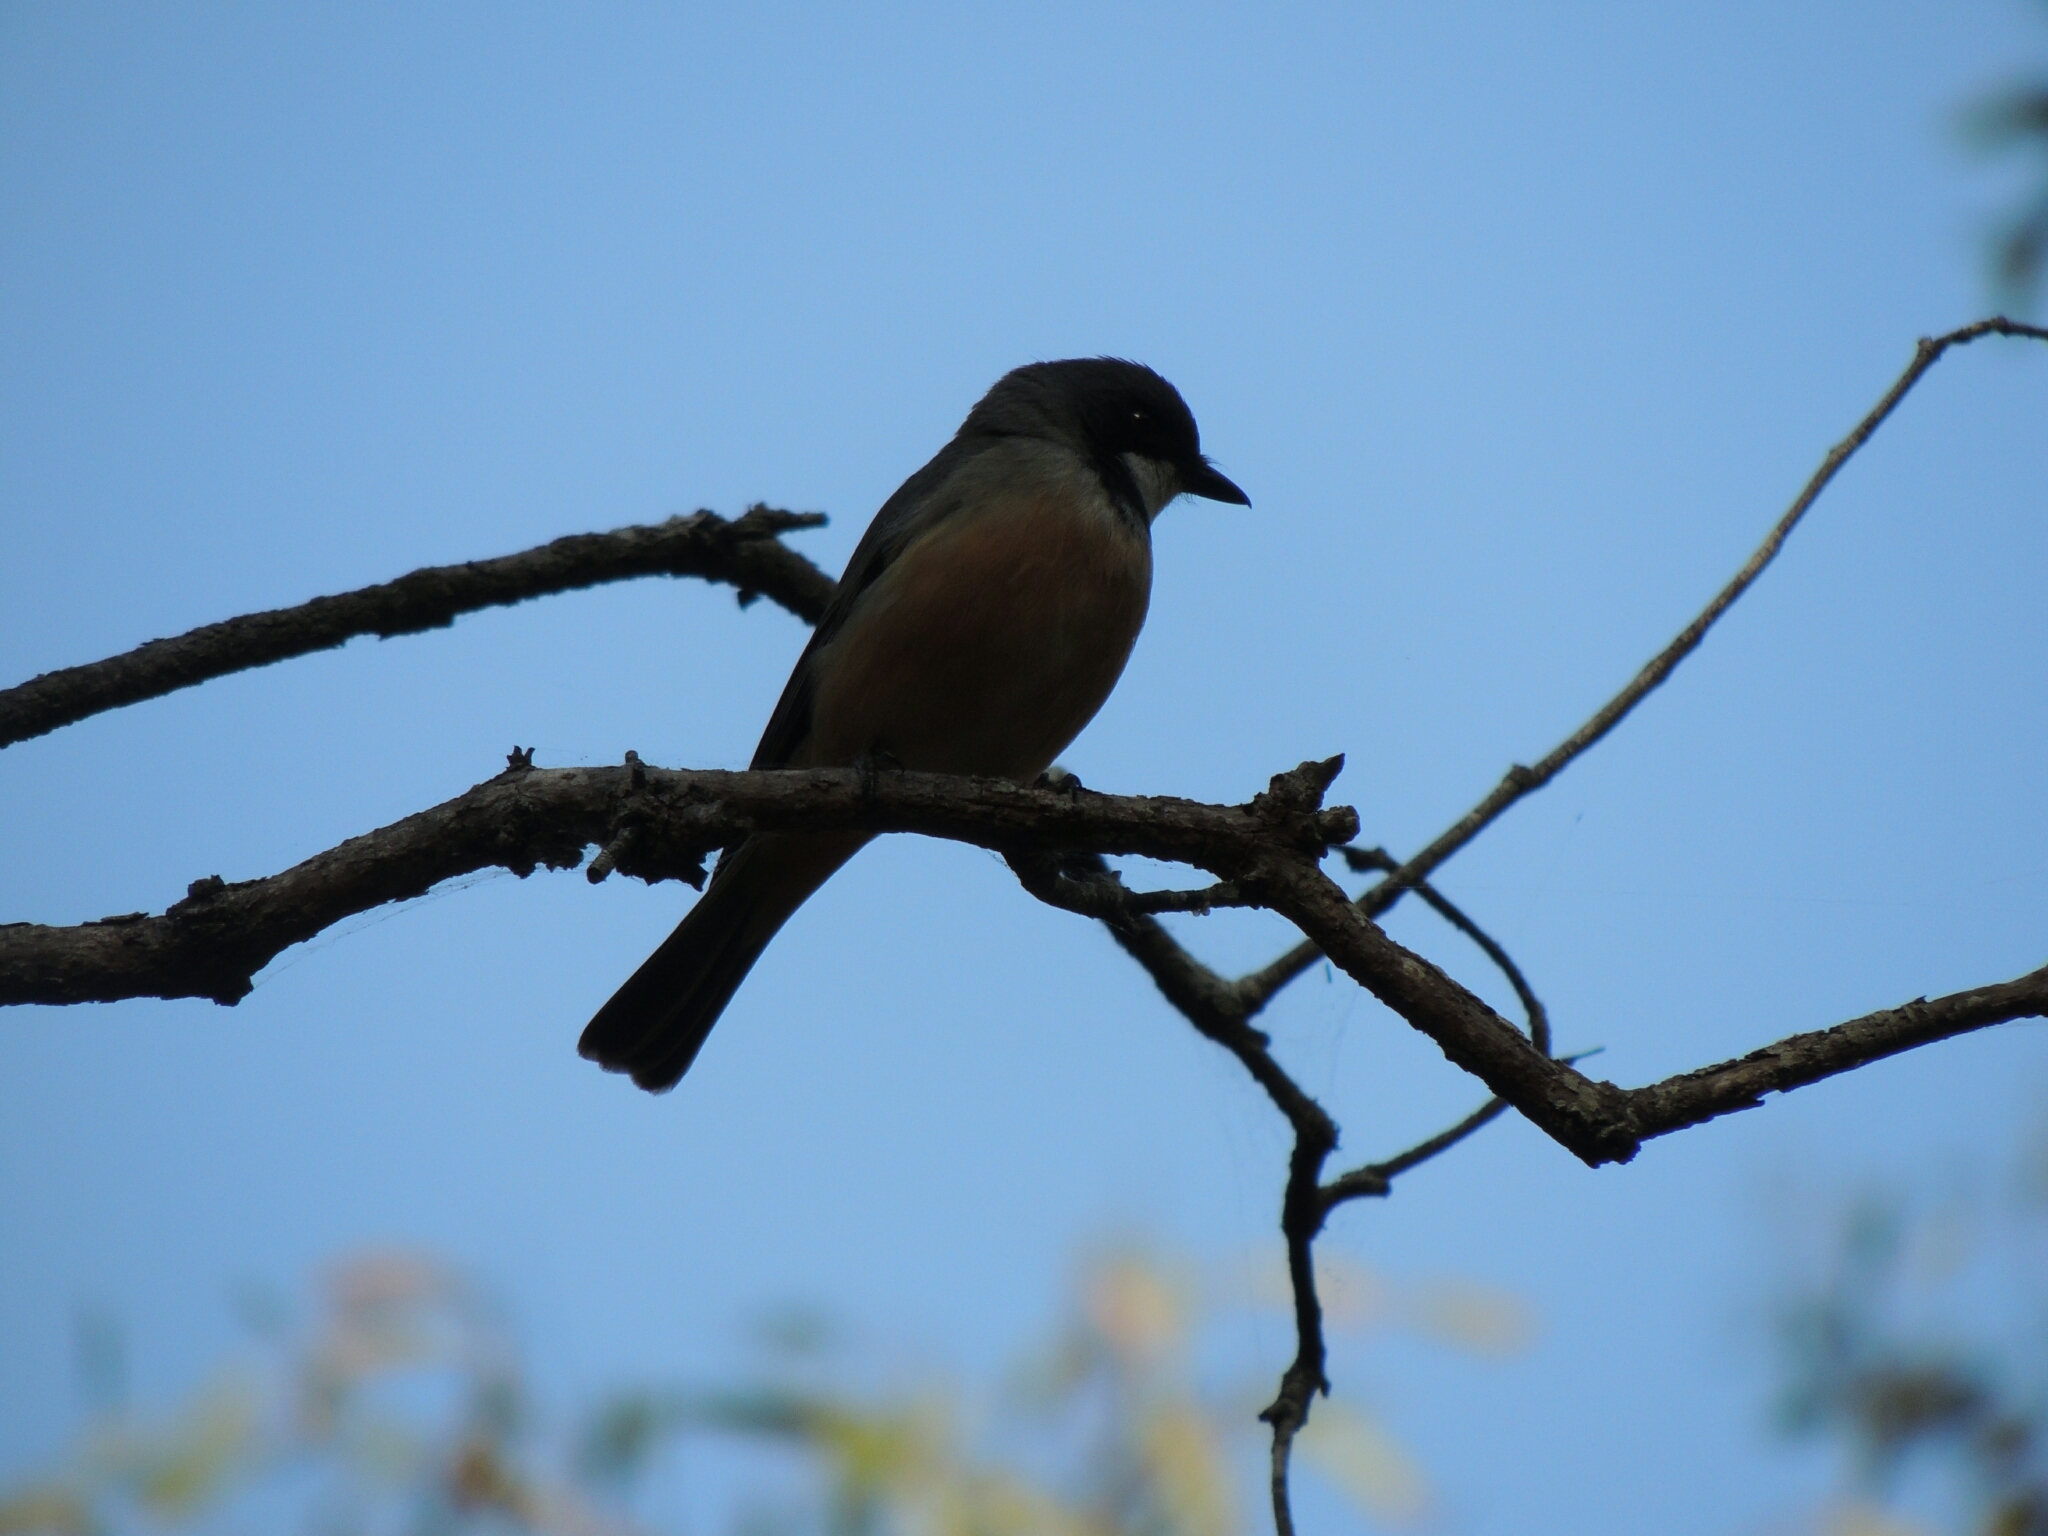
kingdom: Animalia
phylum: Chordata
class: Aves
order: Passeriformes
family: Pachycephalidae
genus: Pachycephala
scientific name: Pachycephala rufiventris
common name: Rufous whistler
